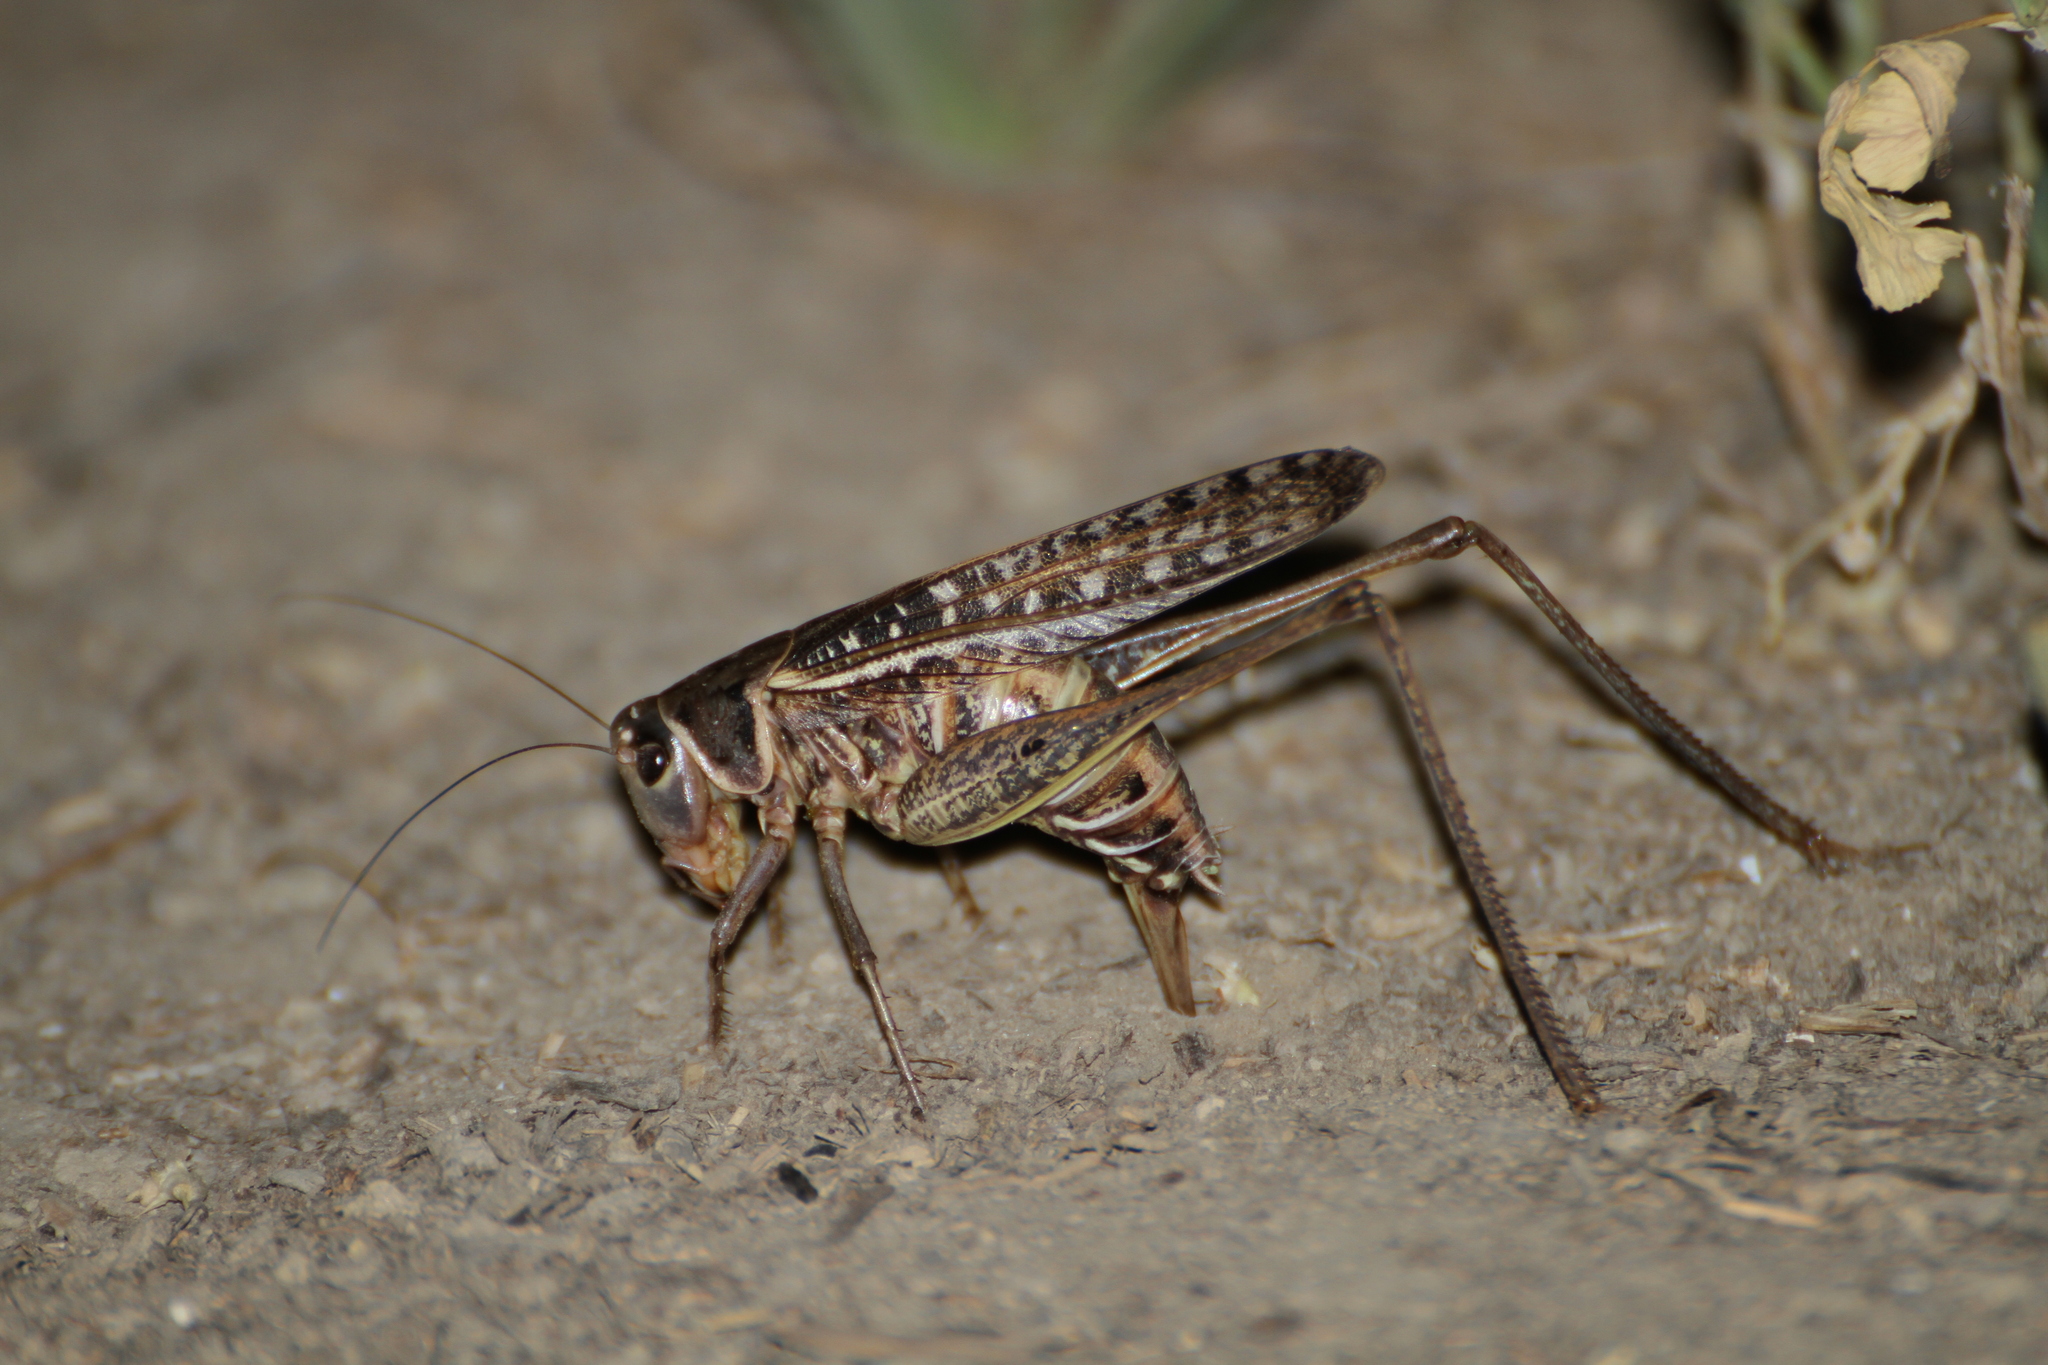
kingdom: Animalia
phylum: Arthropoda
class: Insecta
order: Orthoptera
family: Tettigoniidae
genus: Decticus
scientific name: Decticus albifrons
